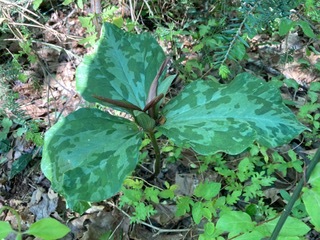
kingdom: Plantae
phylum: Tracheophyta
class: Liliopsida
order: Liliales
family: Melanthiaceae
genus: Trillium
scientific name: Trillium cuneatum
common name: Cuneate trillium
